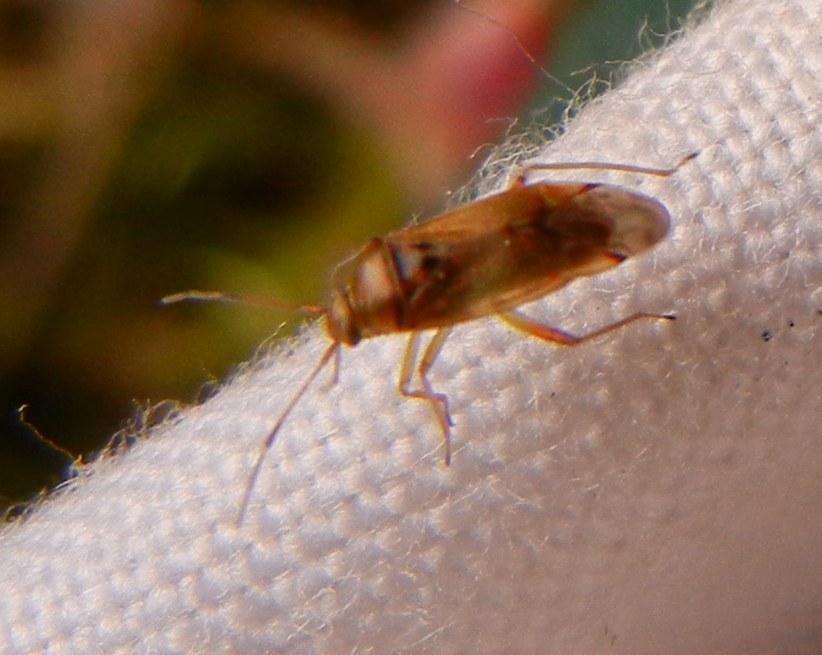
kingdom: Animalia
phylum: Arthropoda
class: Insecta
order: Hemiptera
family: Miridae
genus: Pinalitus
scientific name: Pinalitus cervinus
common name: Plant bug
